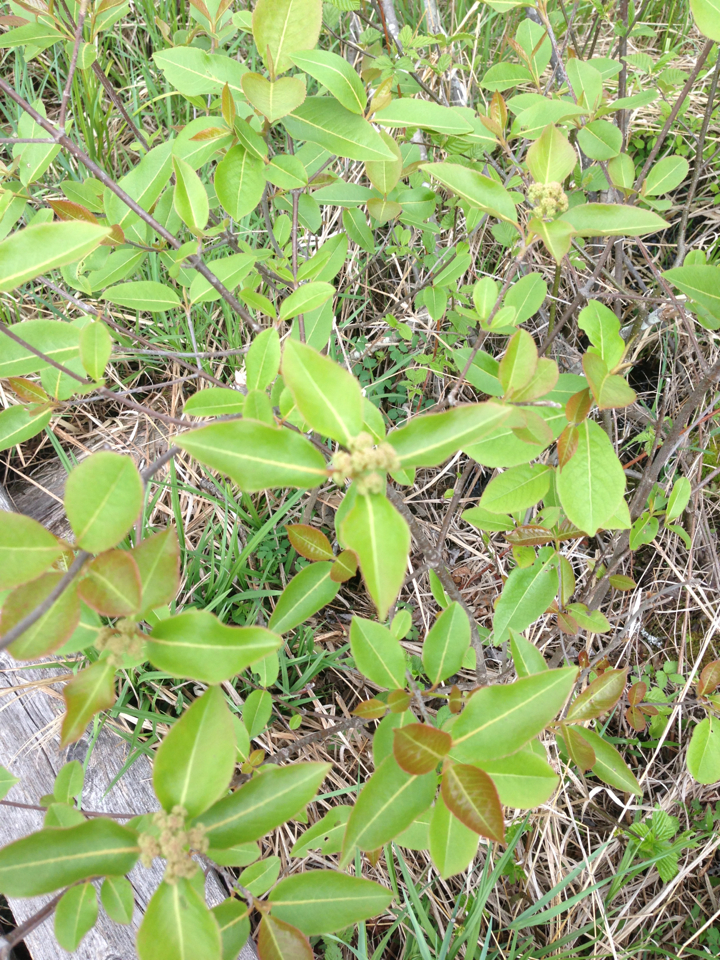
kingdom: Plantae
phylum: Tracheophyta
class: Magnoliopsida
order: Dipsacales
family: Viburnaceae
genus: Viburnum
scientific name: Viburnum cassinoides
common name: Swamp haw
